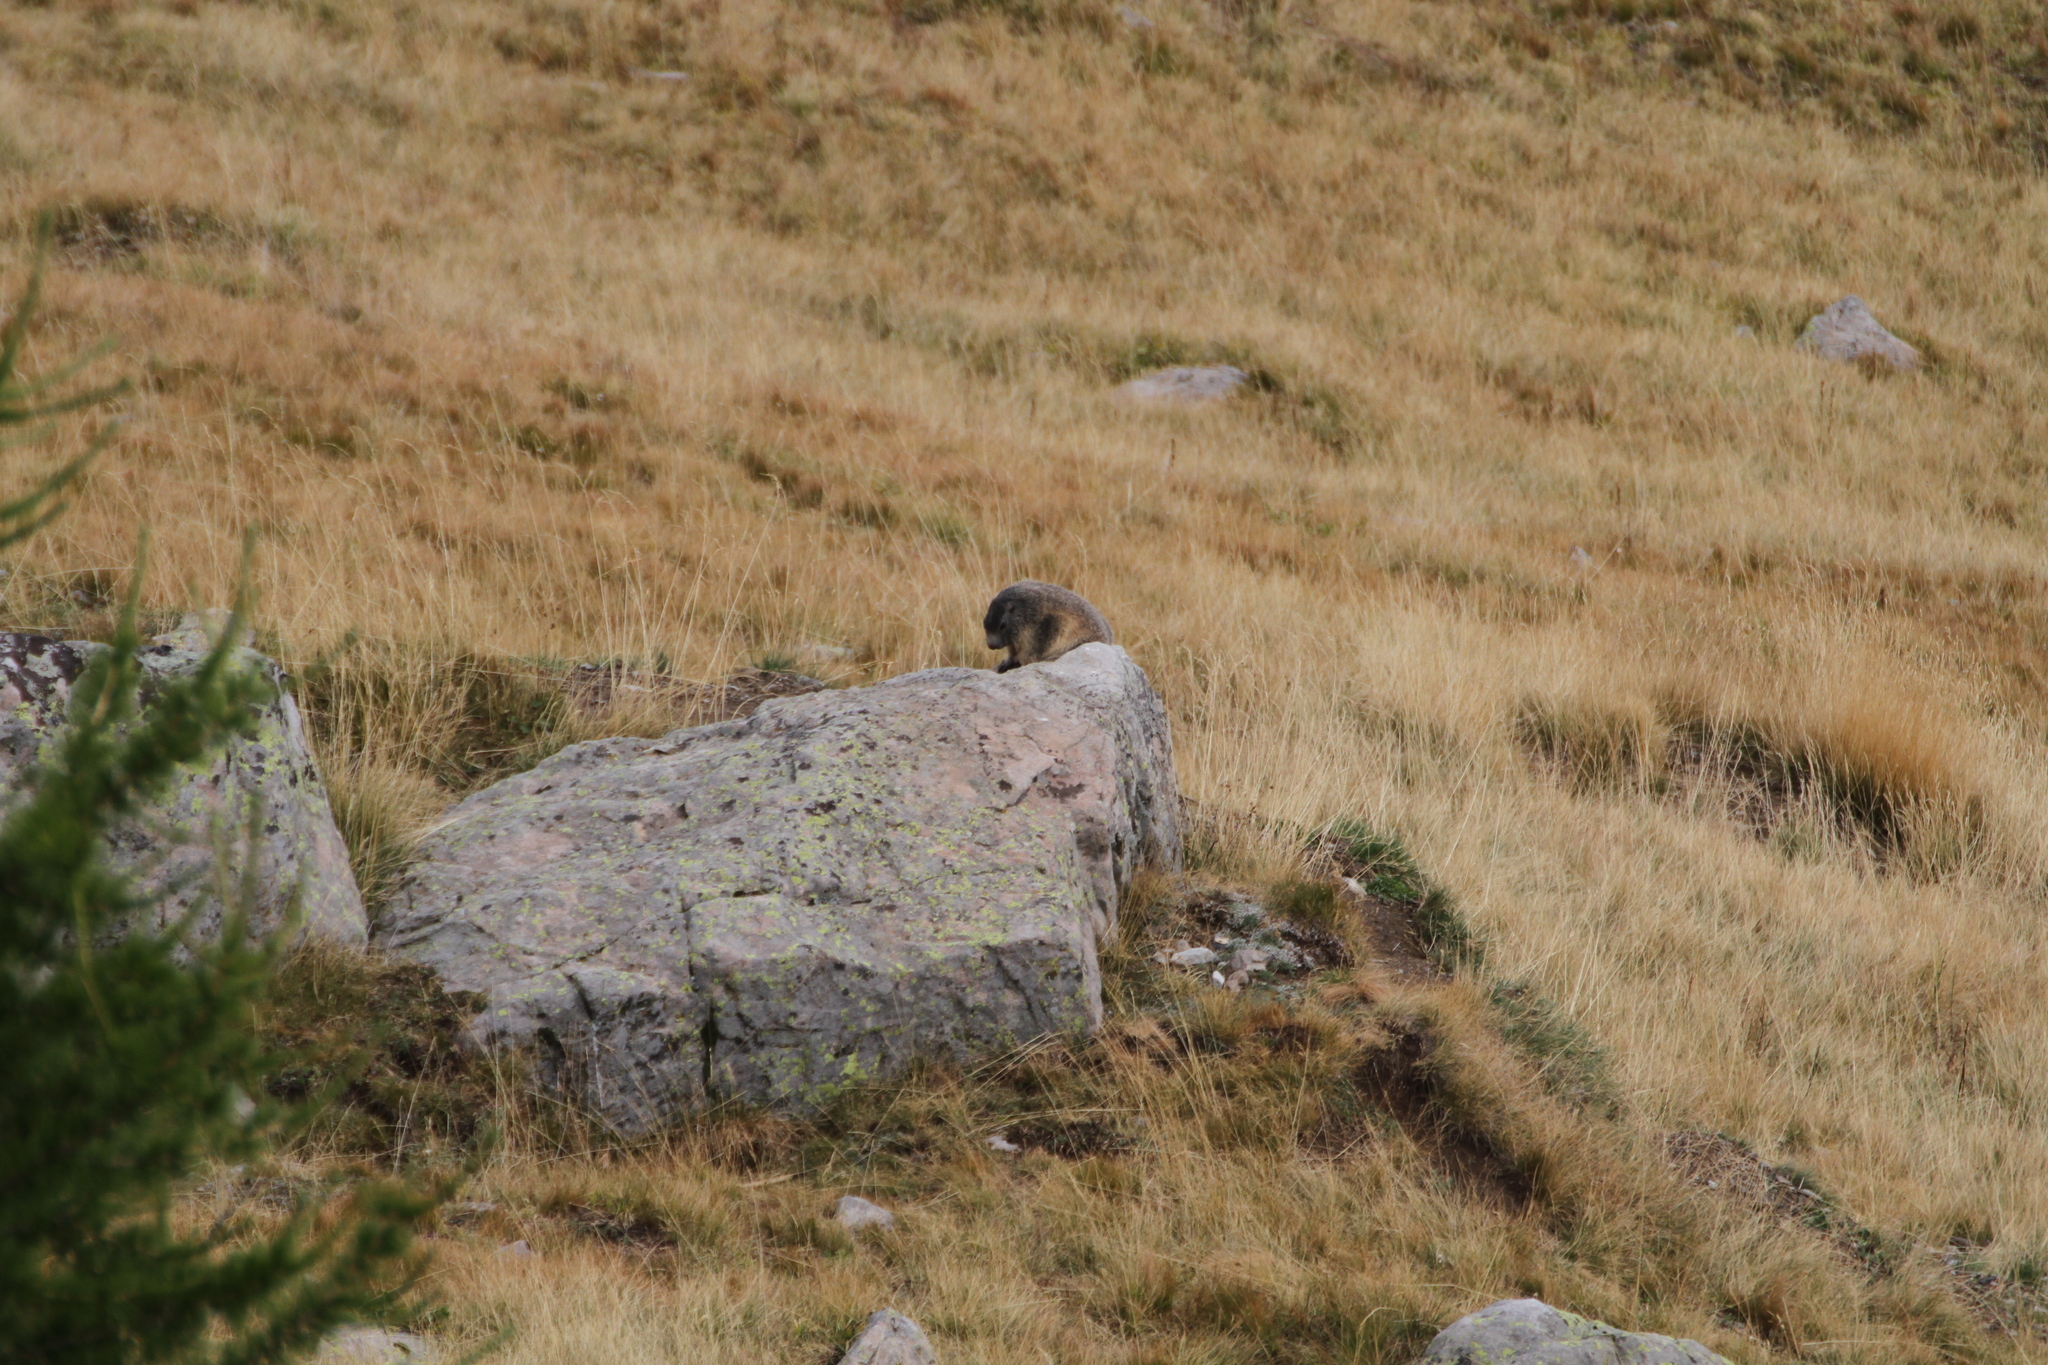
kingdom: Animalia
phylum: Chordata
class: Mammalia
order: Rodentia
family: Sciuridae
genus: Marmota
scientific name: Marmota marmota
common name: Alpine marmot
